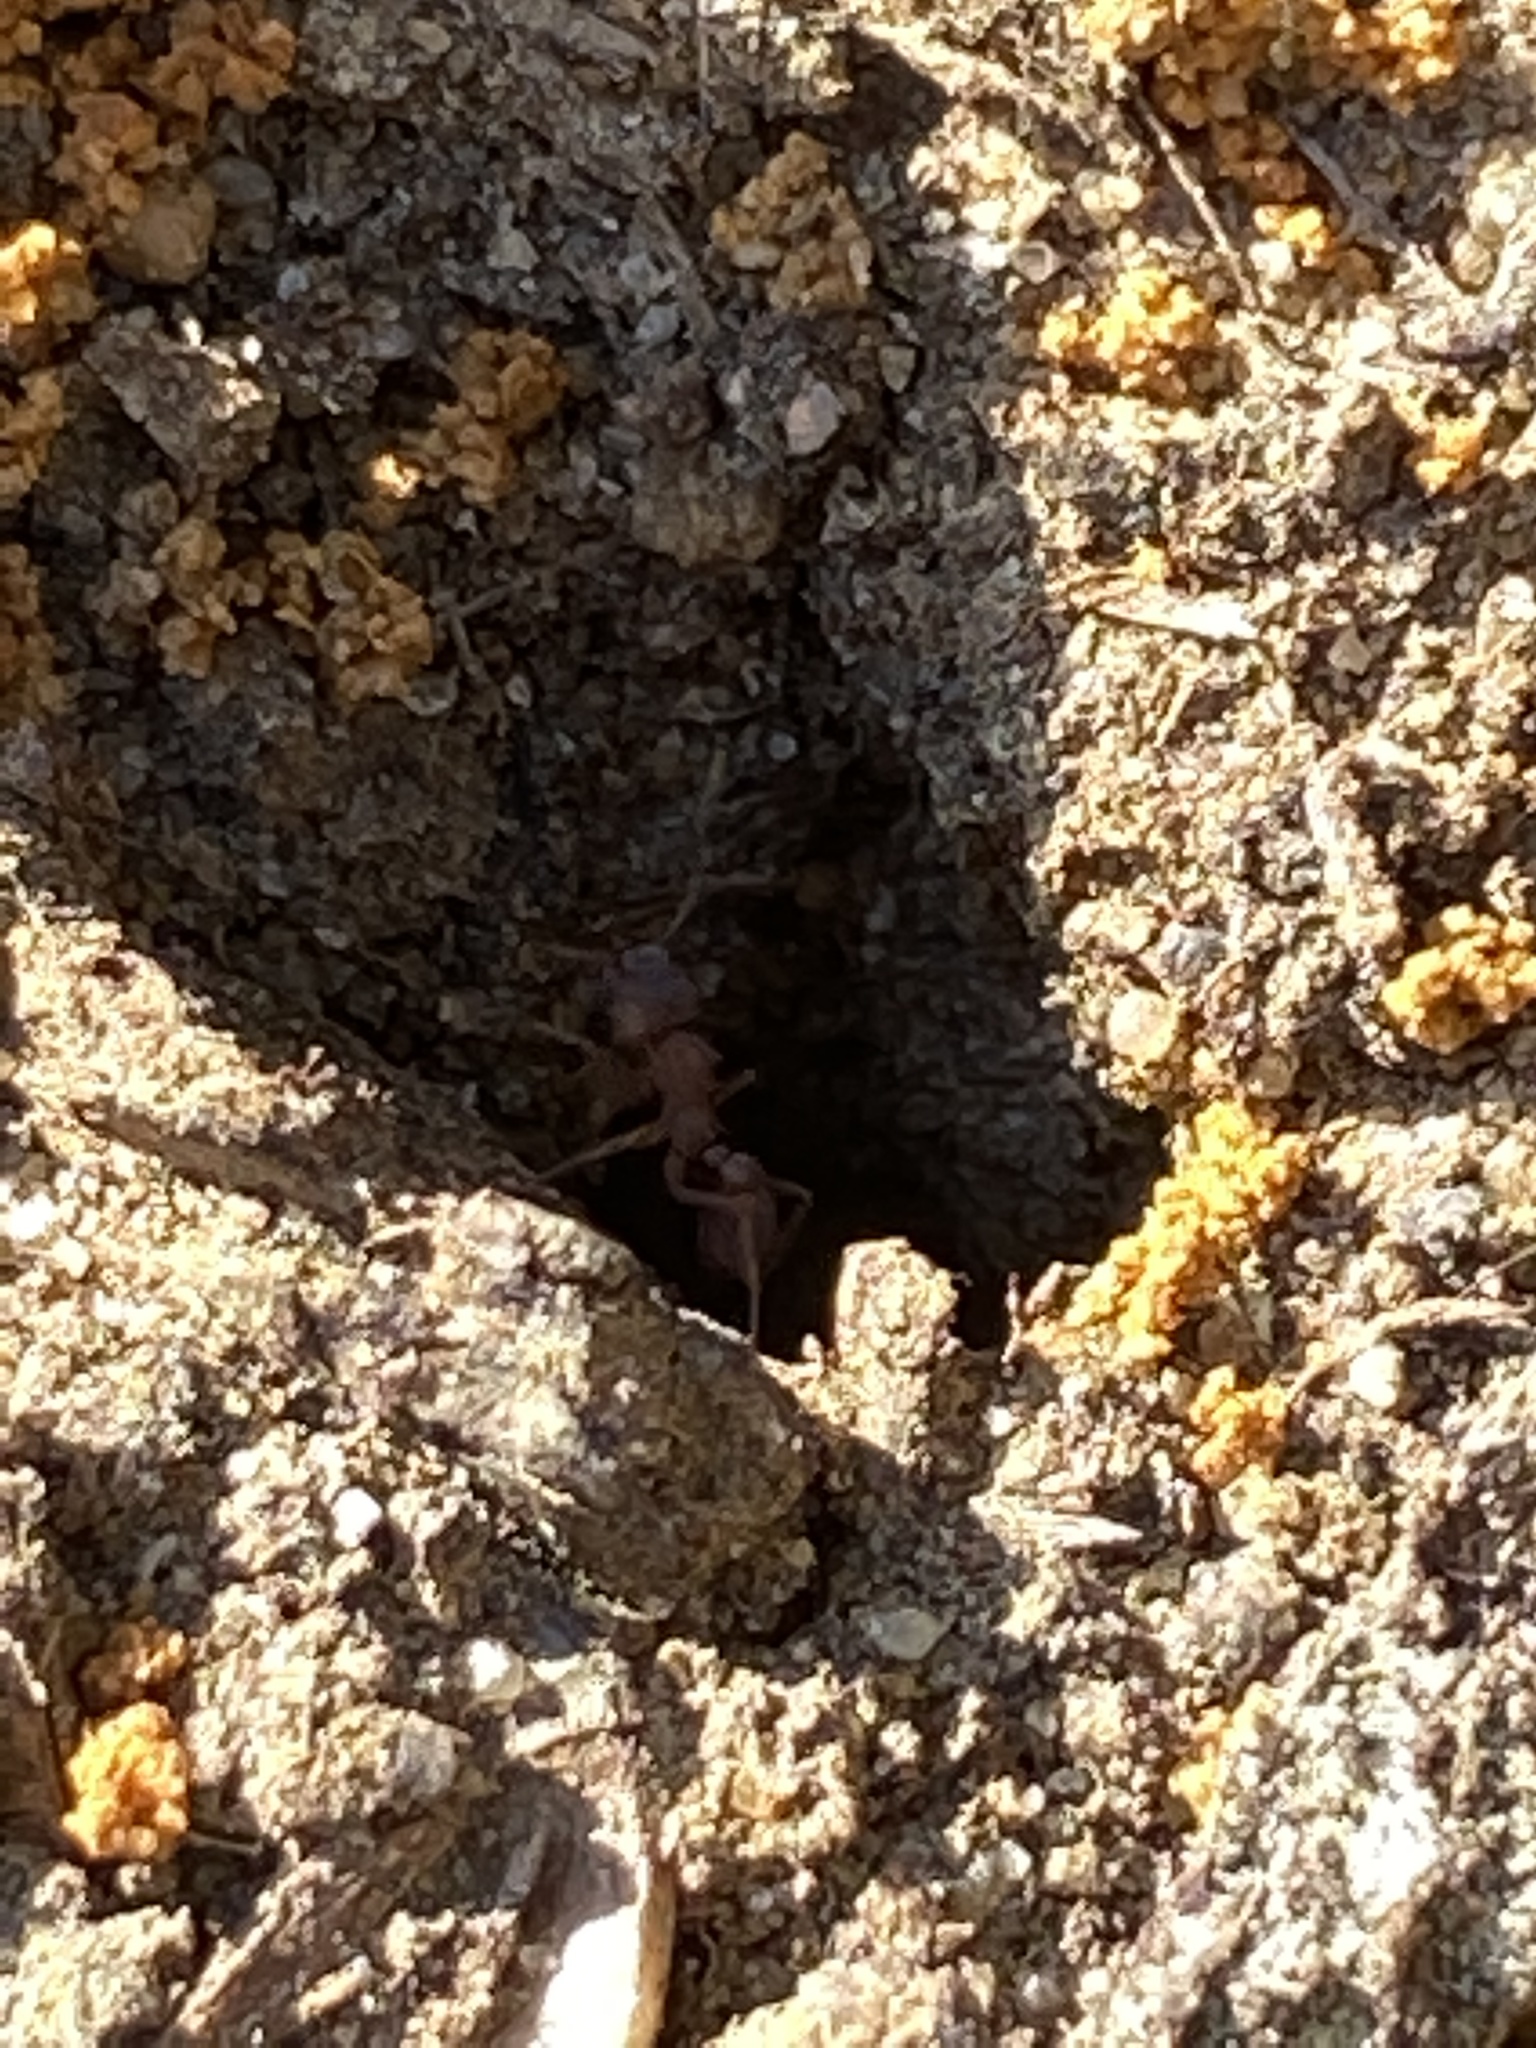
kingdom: Animalia
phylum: Arthropoda
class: Insecta
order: Hymenoptera
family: Formicidae
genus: Trachymyrmex
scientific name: Trachymyrmex septentrionalis
